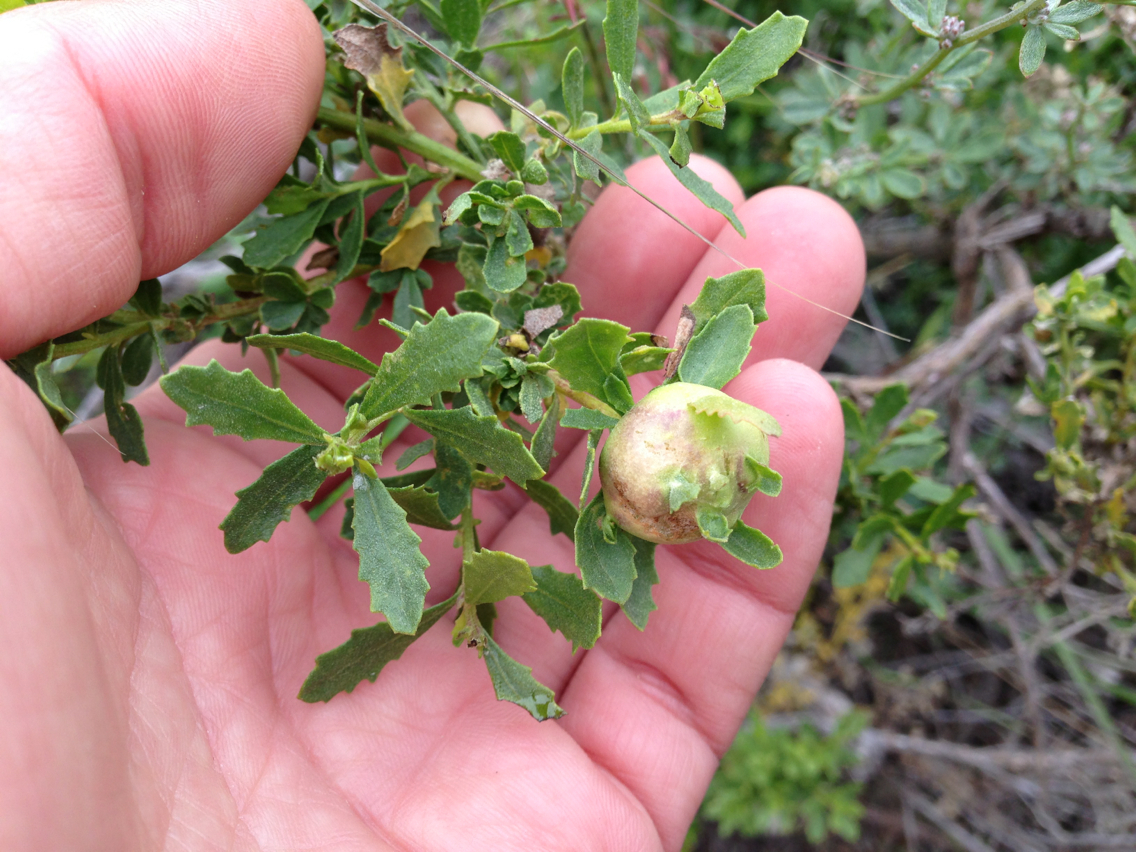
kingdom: Animalia
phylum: Arthropoda
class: Insecta
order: Diptera
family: Cecidomyiidae
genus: Rhopalomyia
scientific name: Rhopalomyia californica
